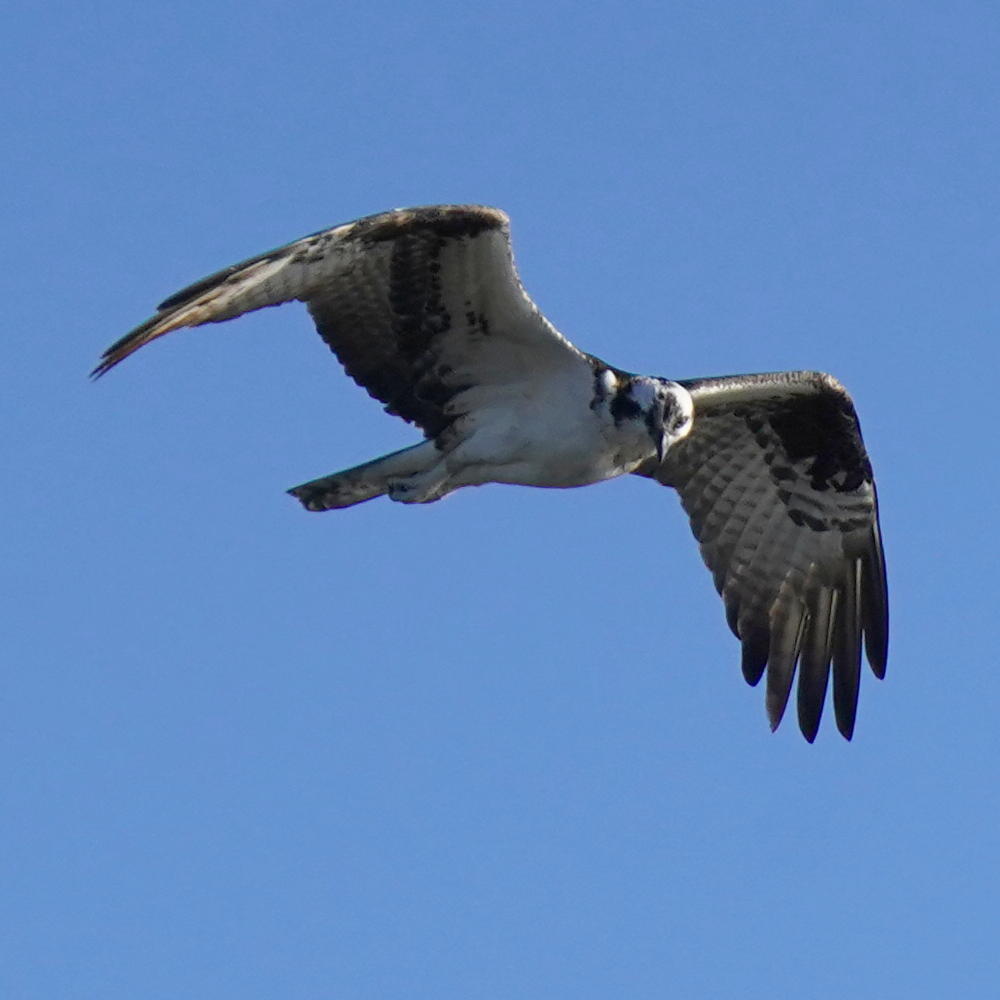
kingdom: Animalia
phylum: Chordata
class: Aves
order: Accipitriformes
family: Pandionidae
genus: Pandion
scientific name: Pandion haliaetus
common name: Osprey
